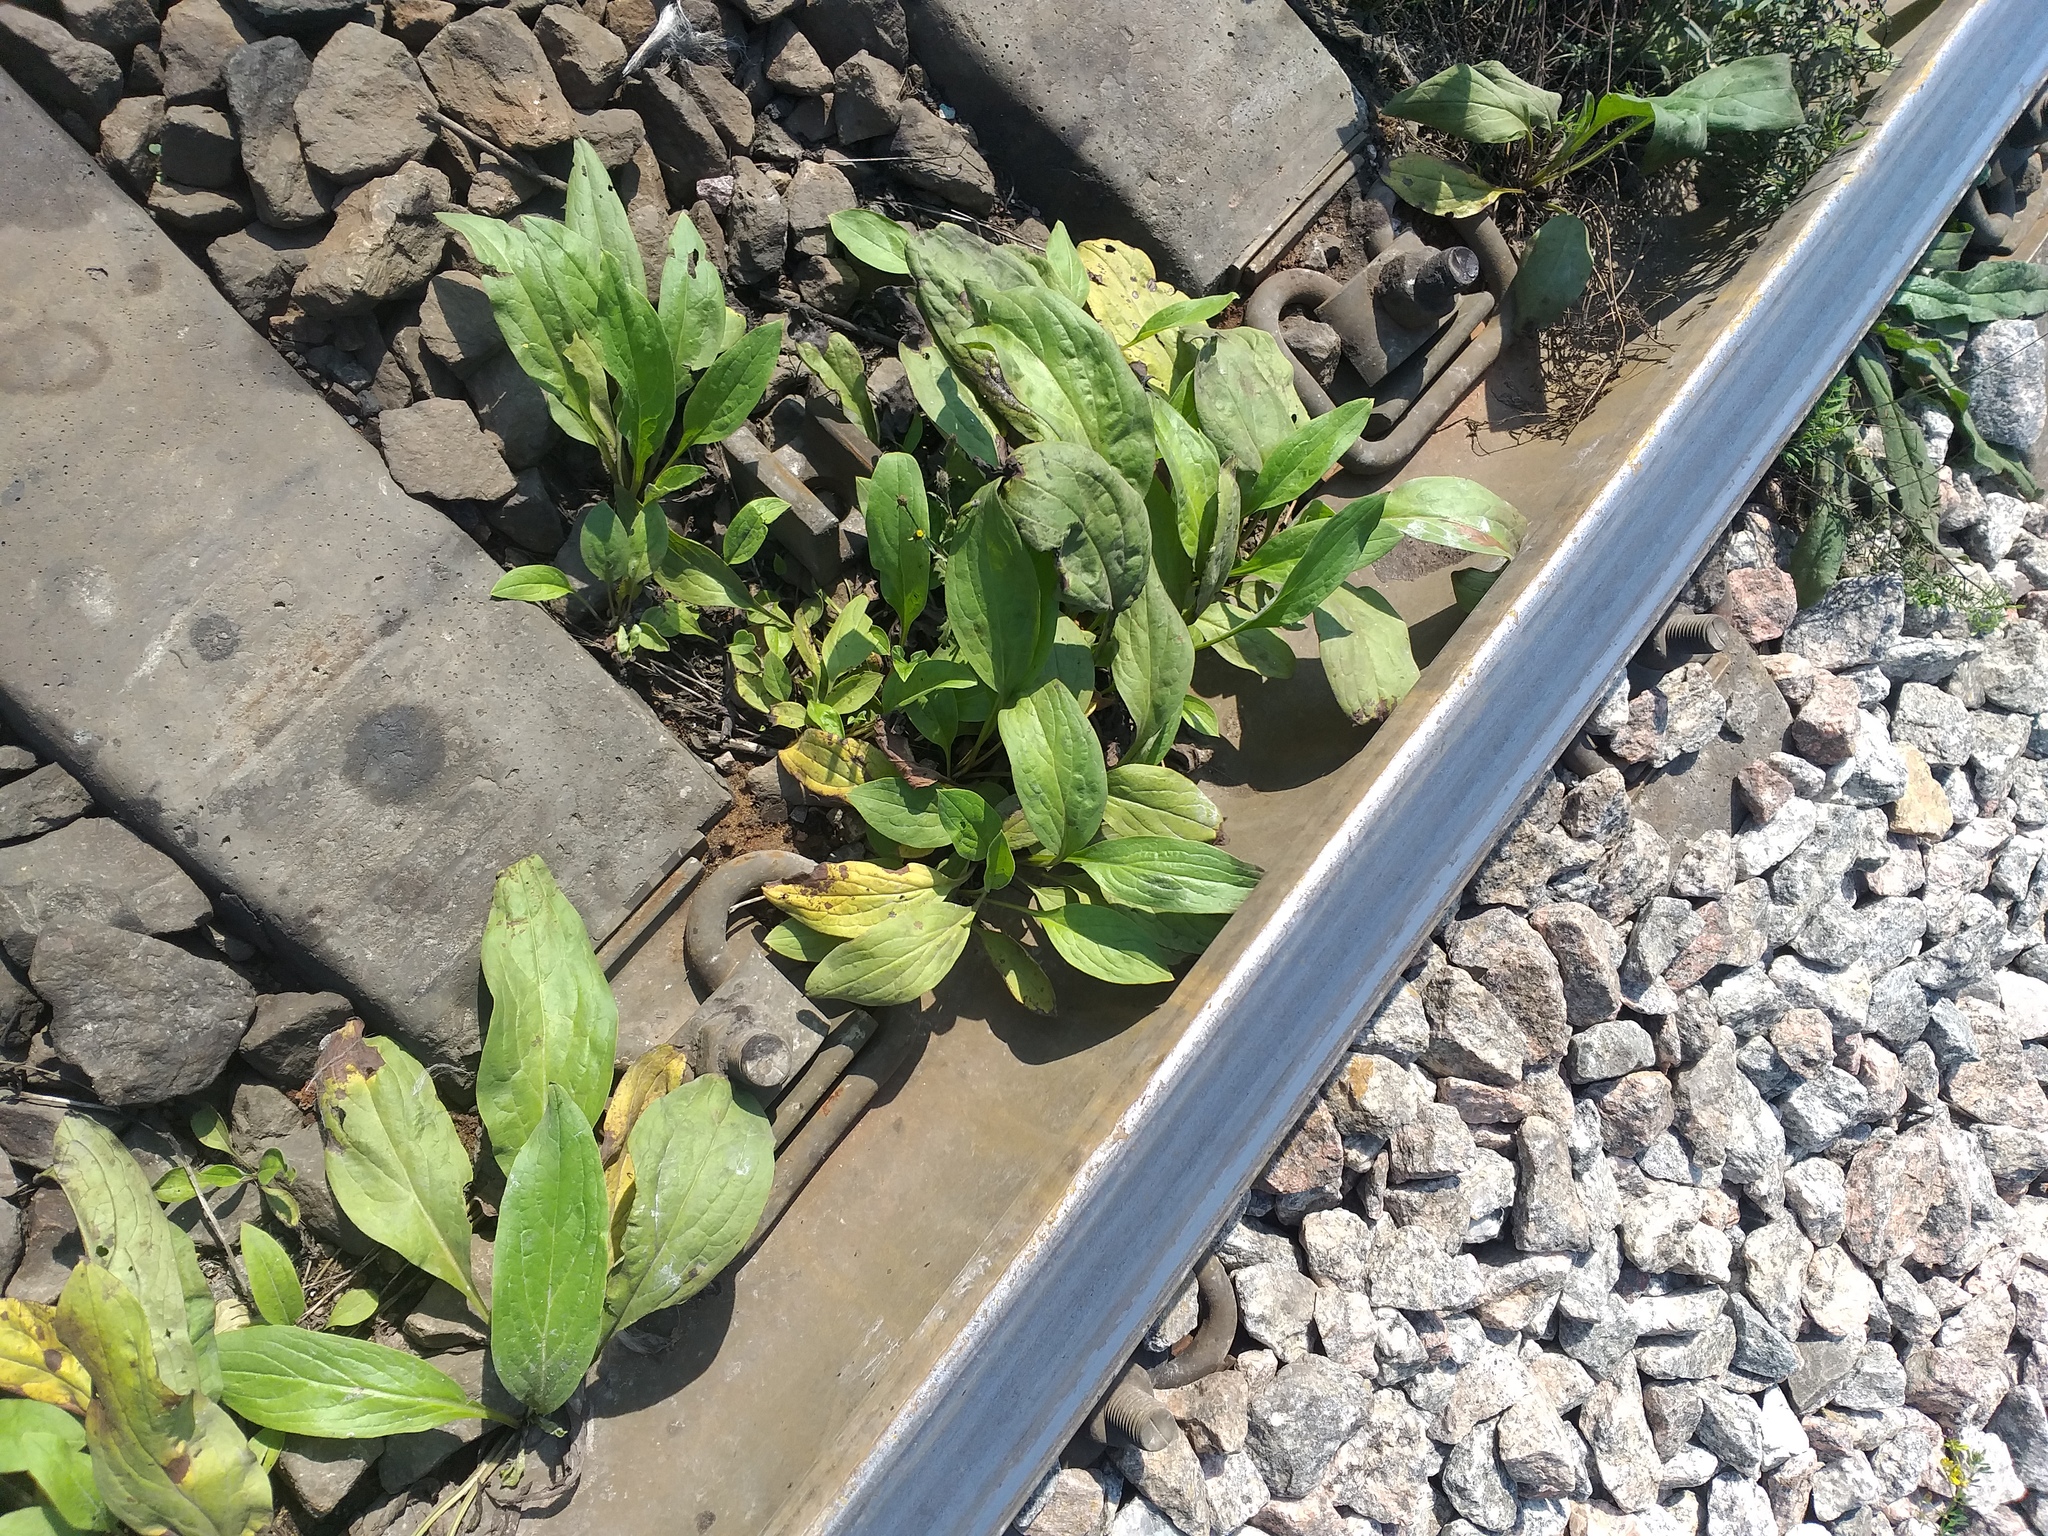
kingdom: Plantae
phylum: Tracheophyta
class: Magnoliopsida
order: Boraginales
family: Boraginaceae
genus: Cynoglossum
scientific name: Cynoglossum officinale
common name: Hound's-tongue
